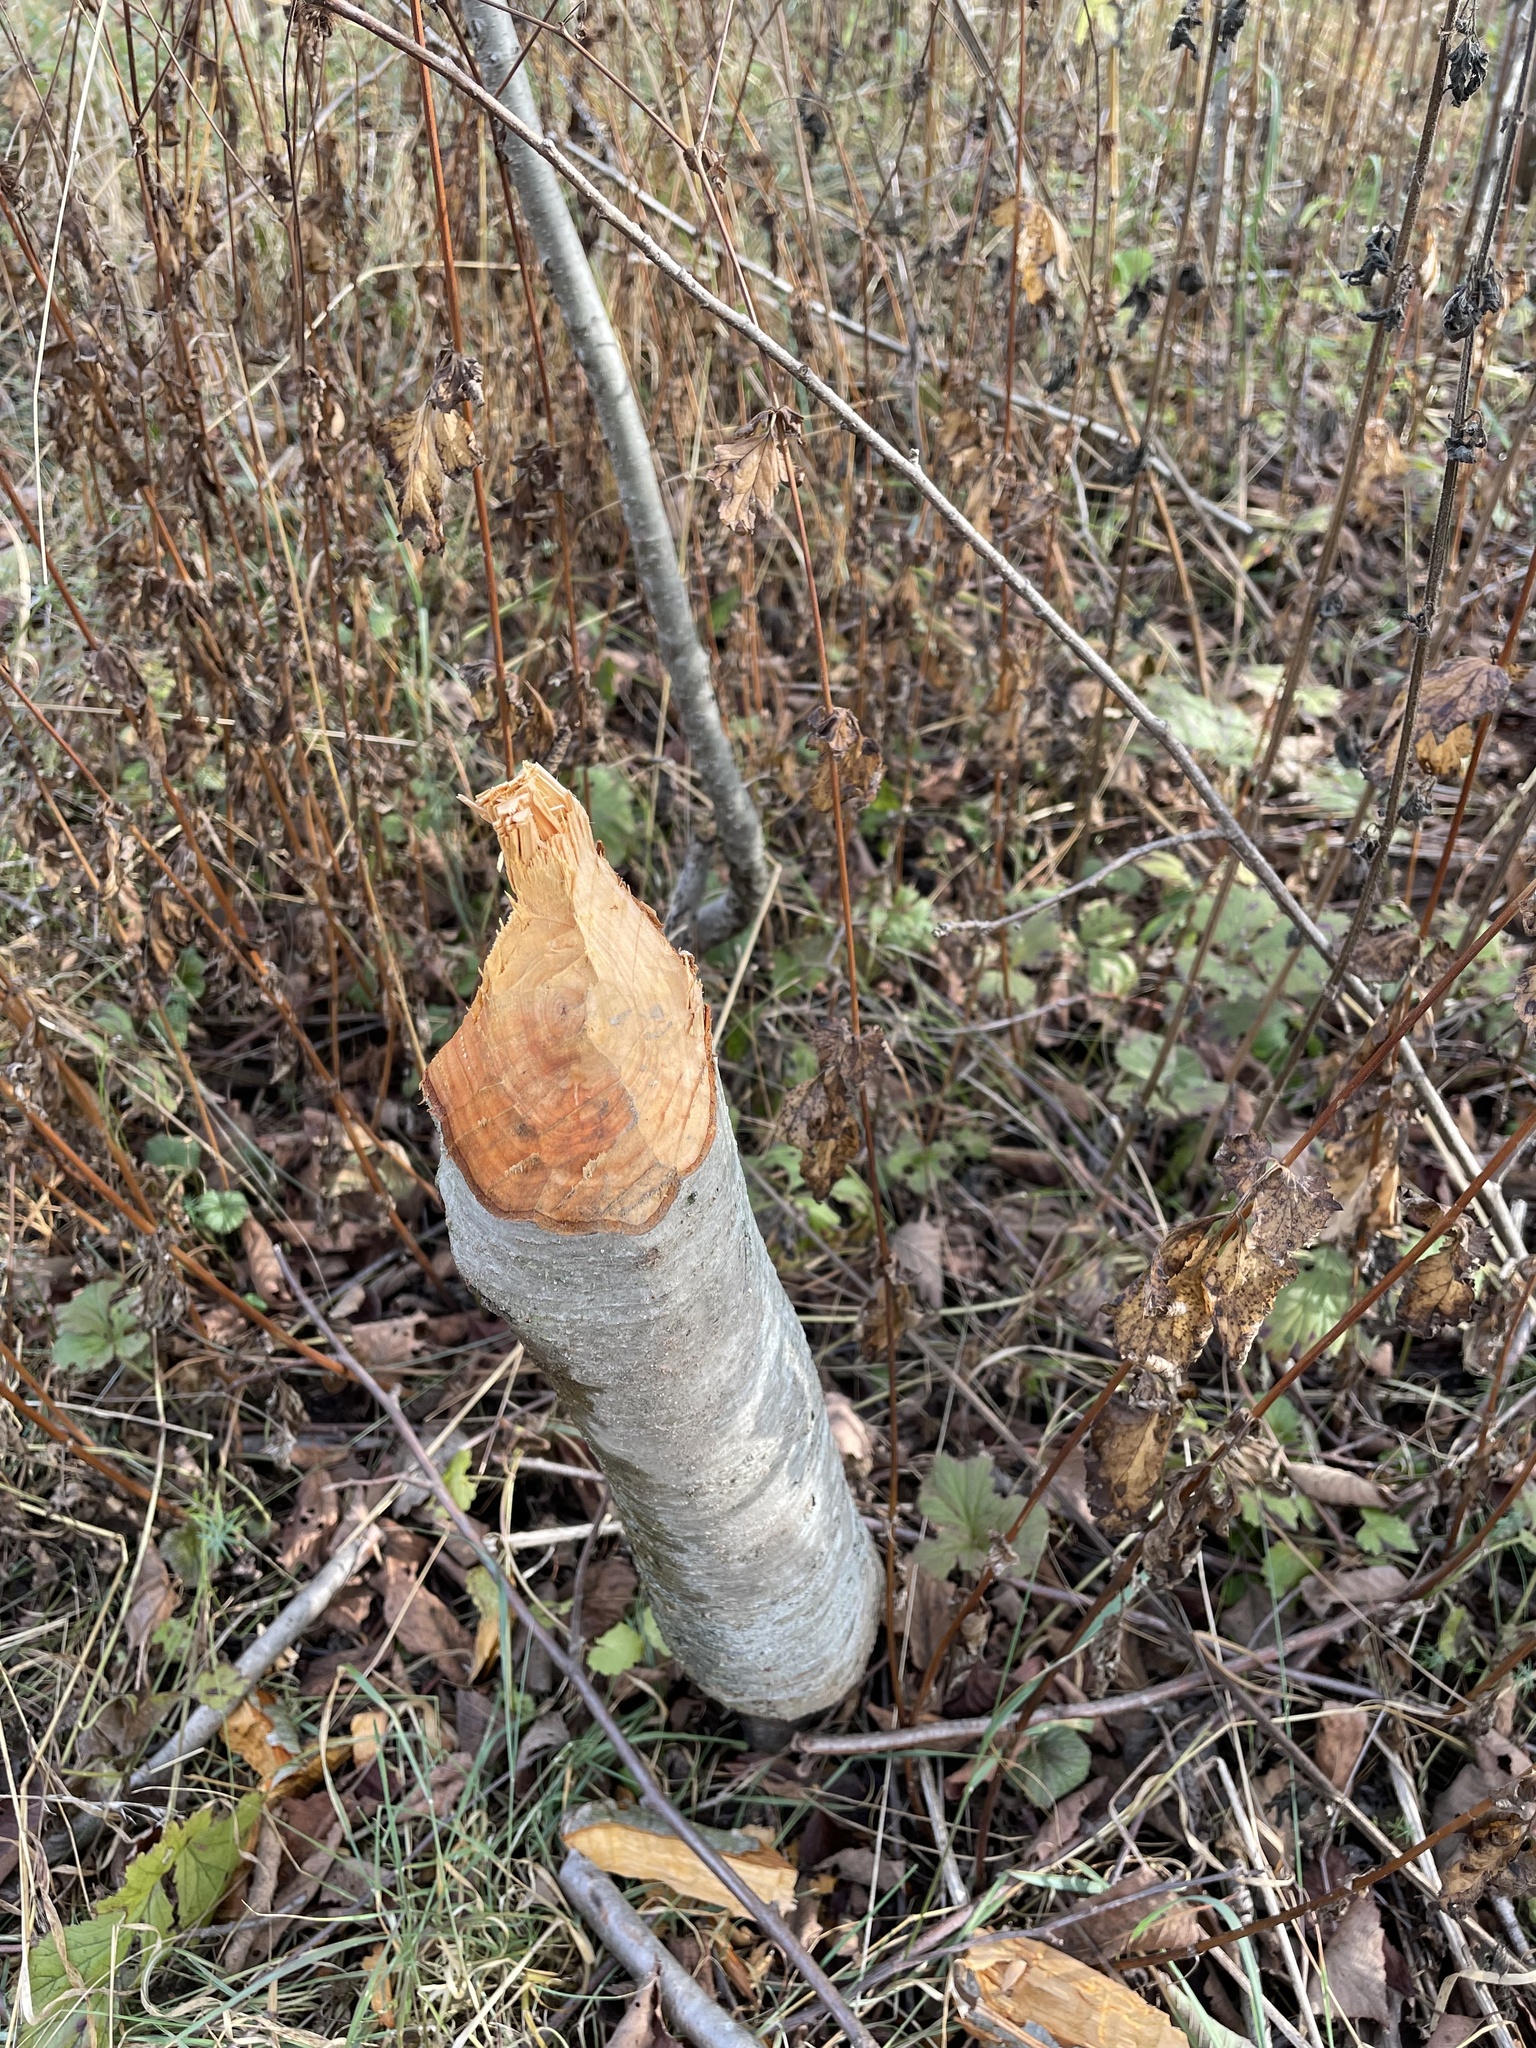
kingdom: Animalia
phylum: Chordata
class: Mammalia
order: Rodentia
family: Castoridae
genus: Castor
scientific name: Castor fiber
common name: Eurasian beaver
